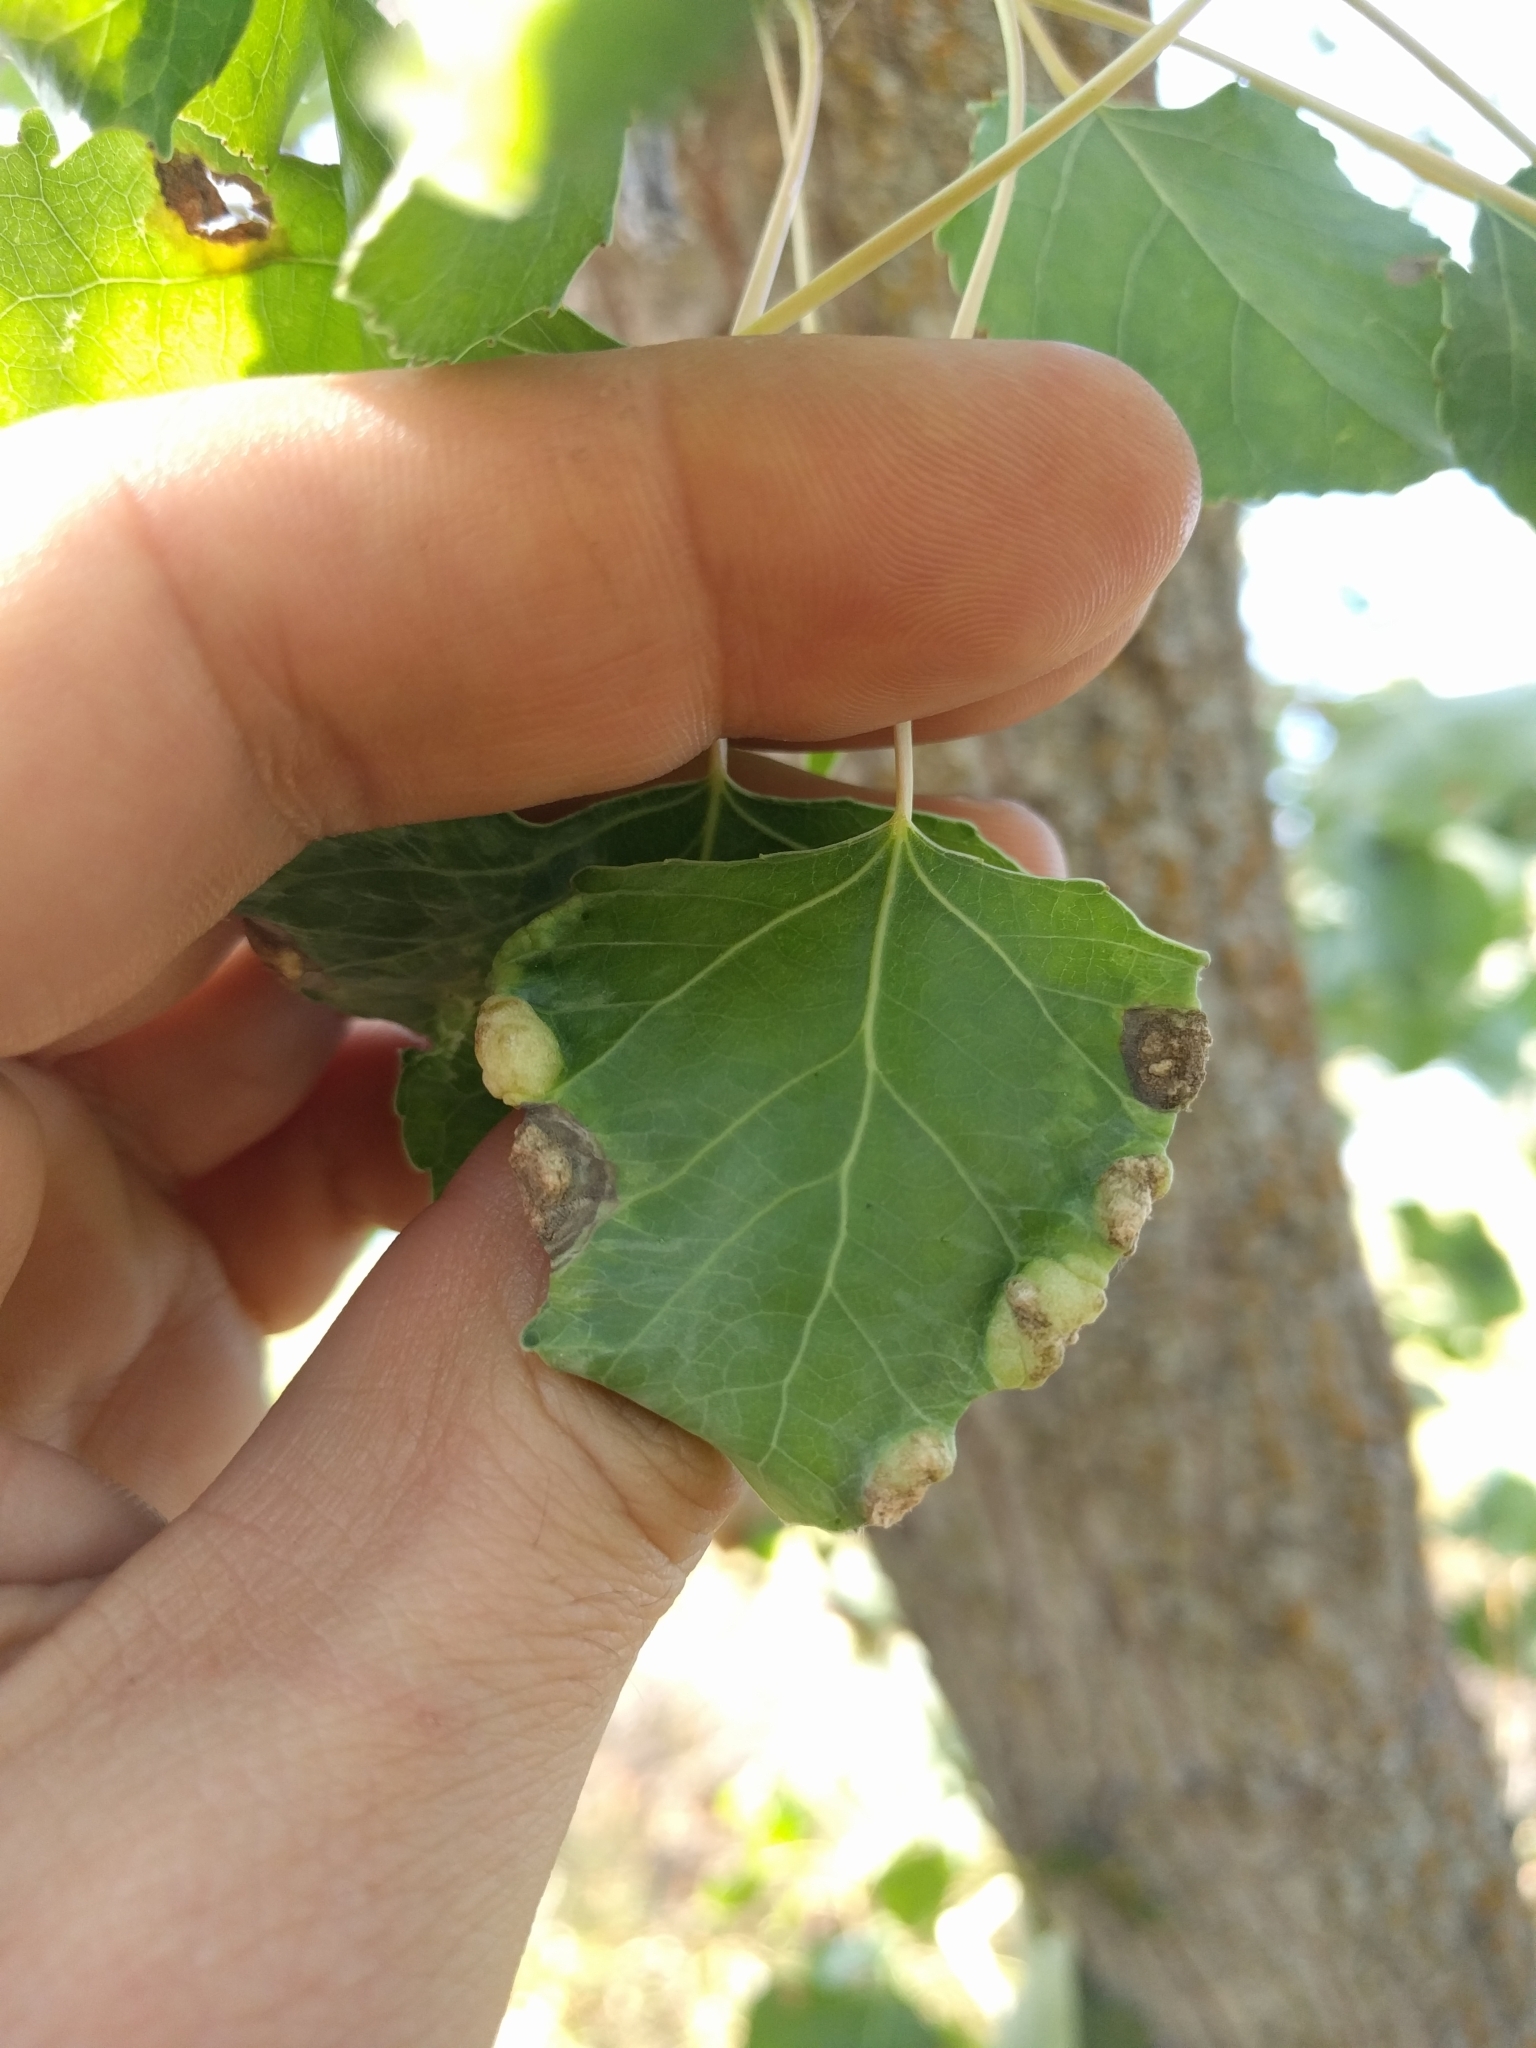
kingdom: Animalia
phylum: Arthropoda
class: Insecta
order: Hemiptera
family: Aphididae
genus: Thecabius
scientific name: Thecabius populimonilis
